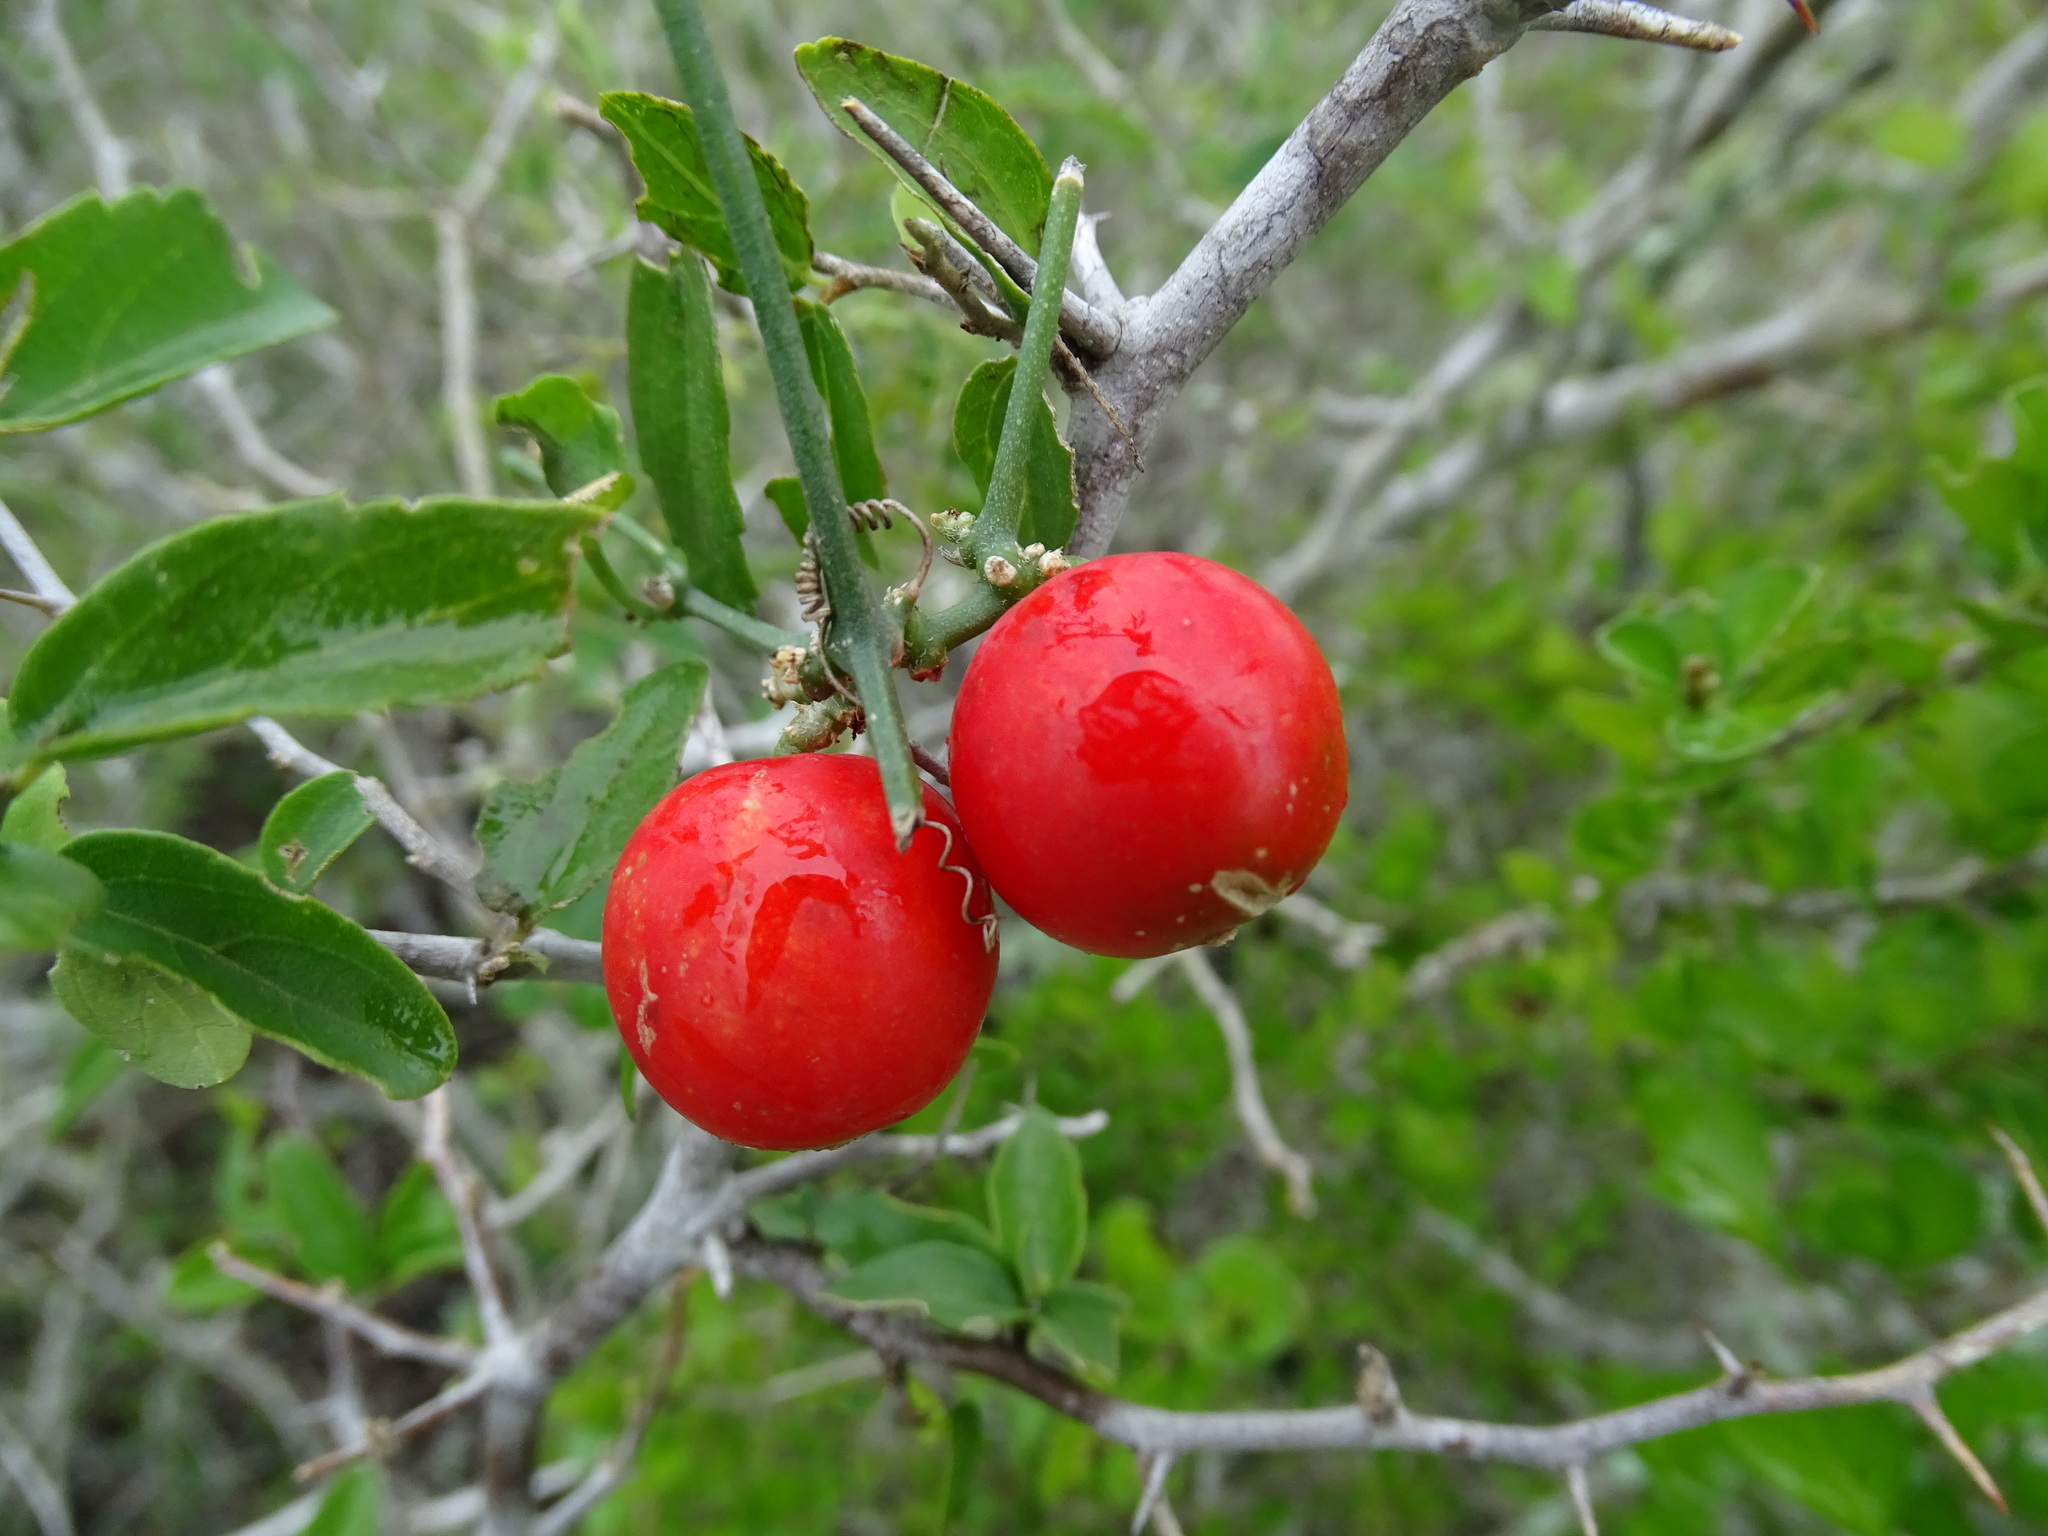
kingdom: Plantae
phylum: Tracheophyta
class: Magnoliopsida
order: Cucurbitales
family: Cucurbitaceae
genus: Ibervillea
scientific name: Ibervillea tenuisecta
